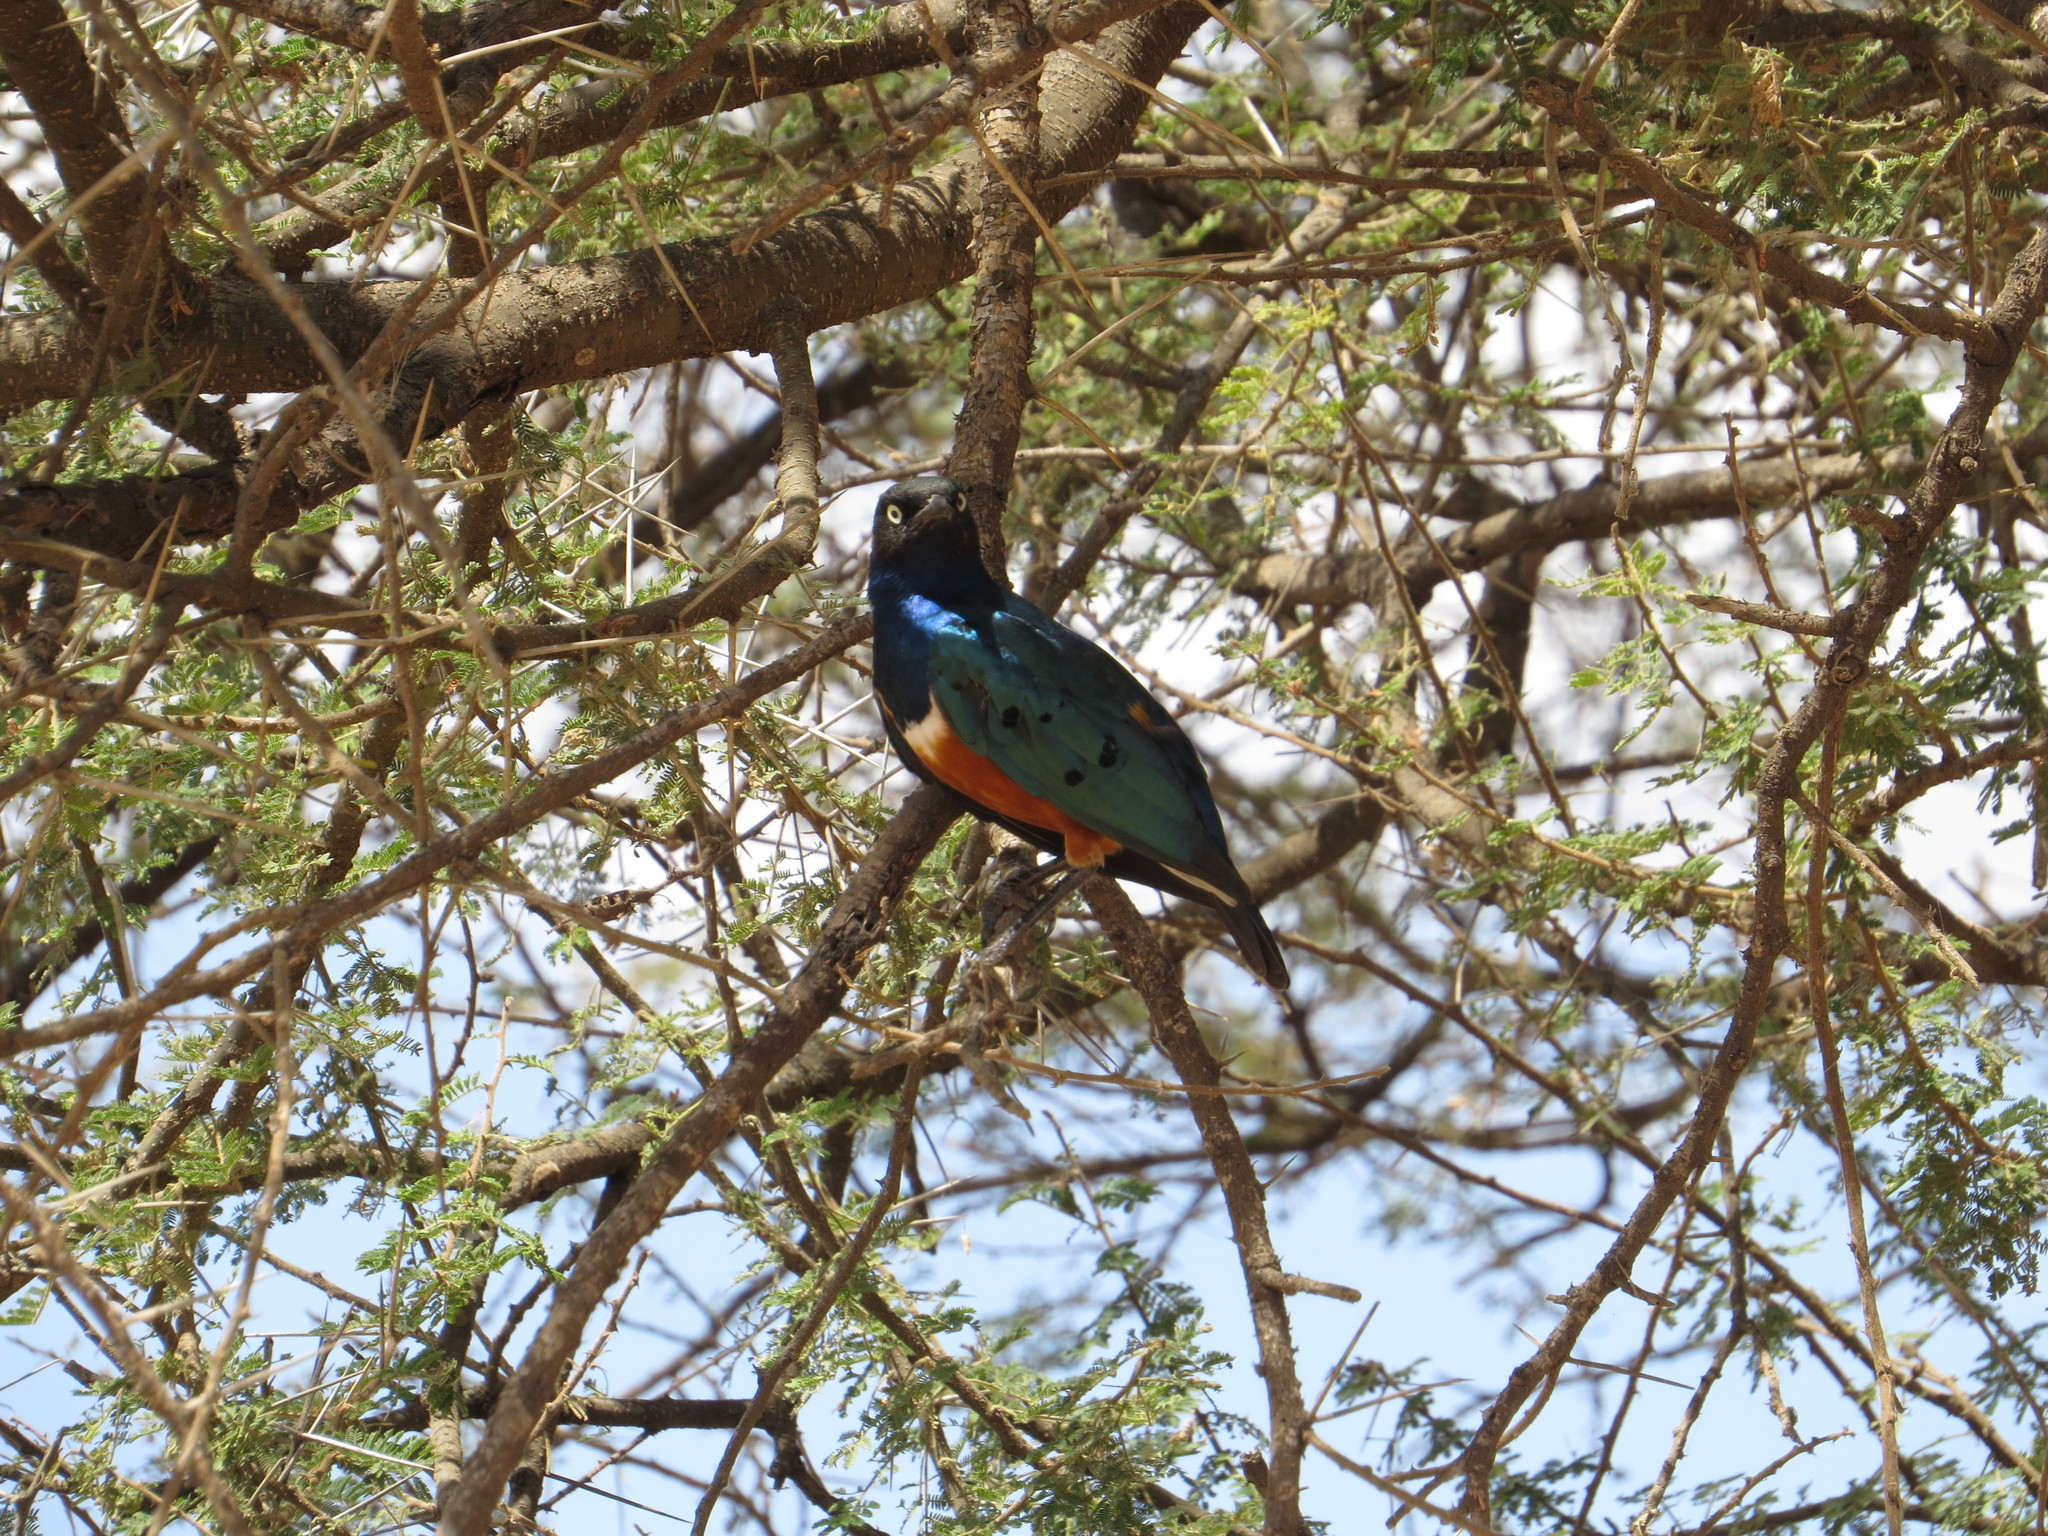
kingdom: Animalia
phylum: Chordata
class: Aves
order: Passeriformes
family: Sturnidae
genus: Lamprotornis
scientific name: Lamprotornis superbus
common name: Superb starling
